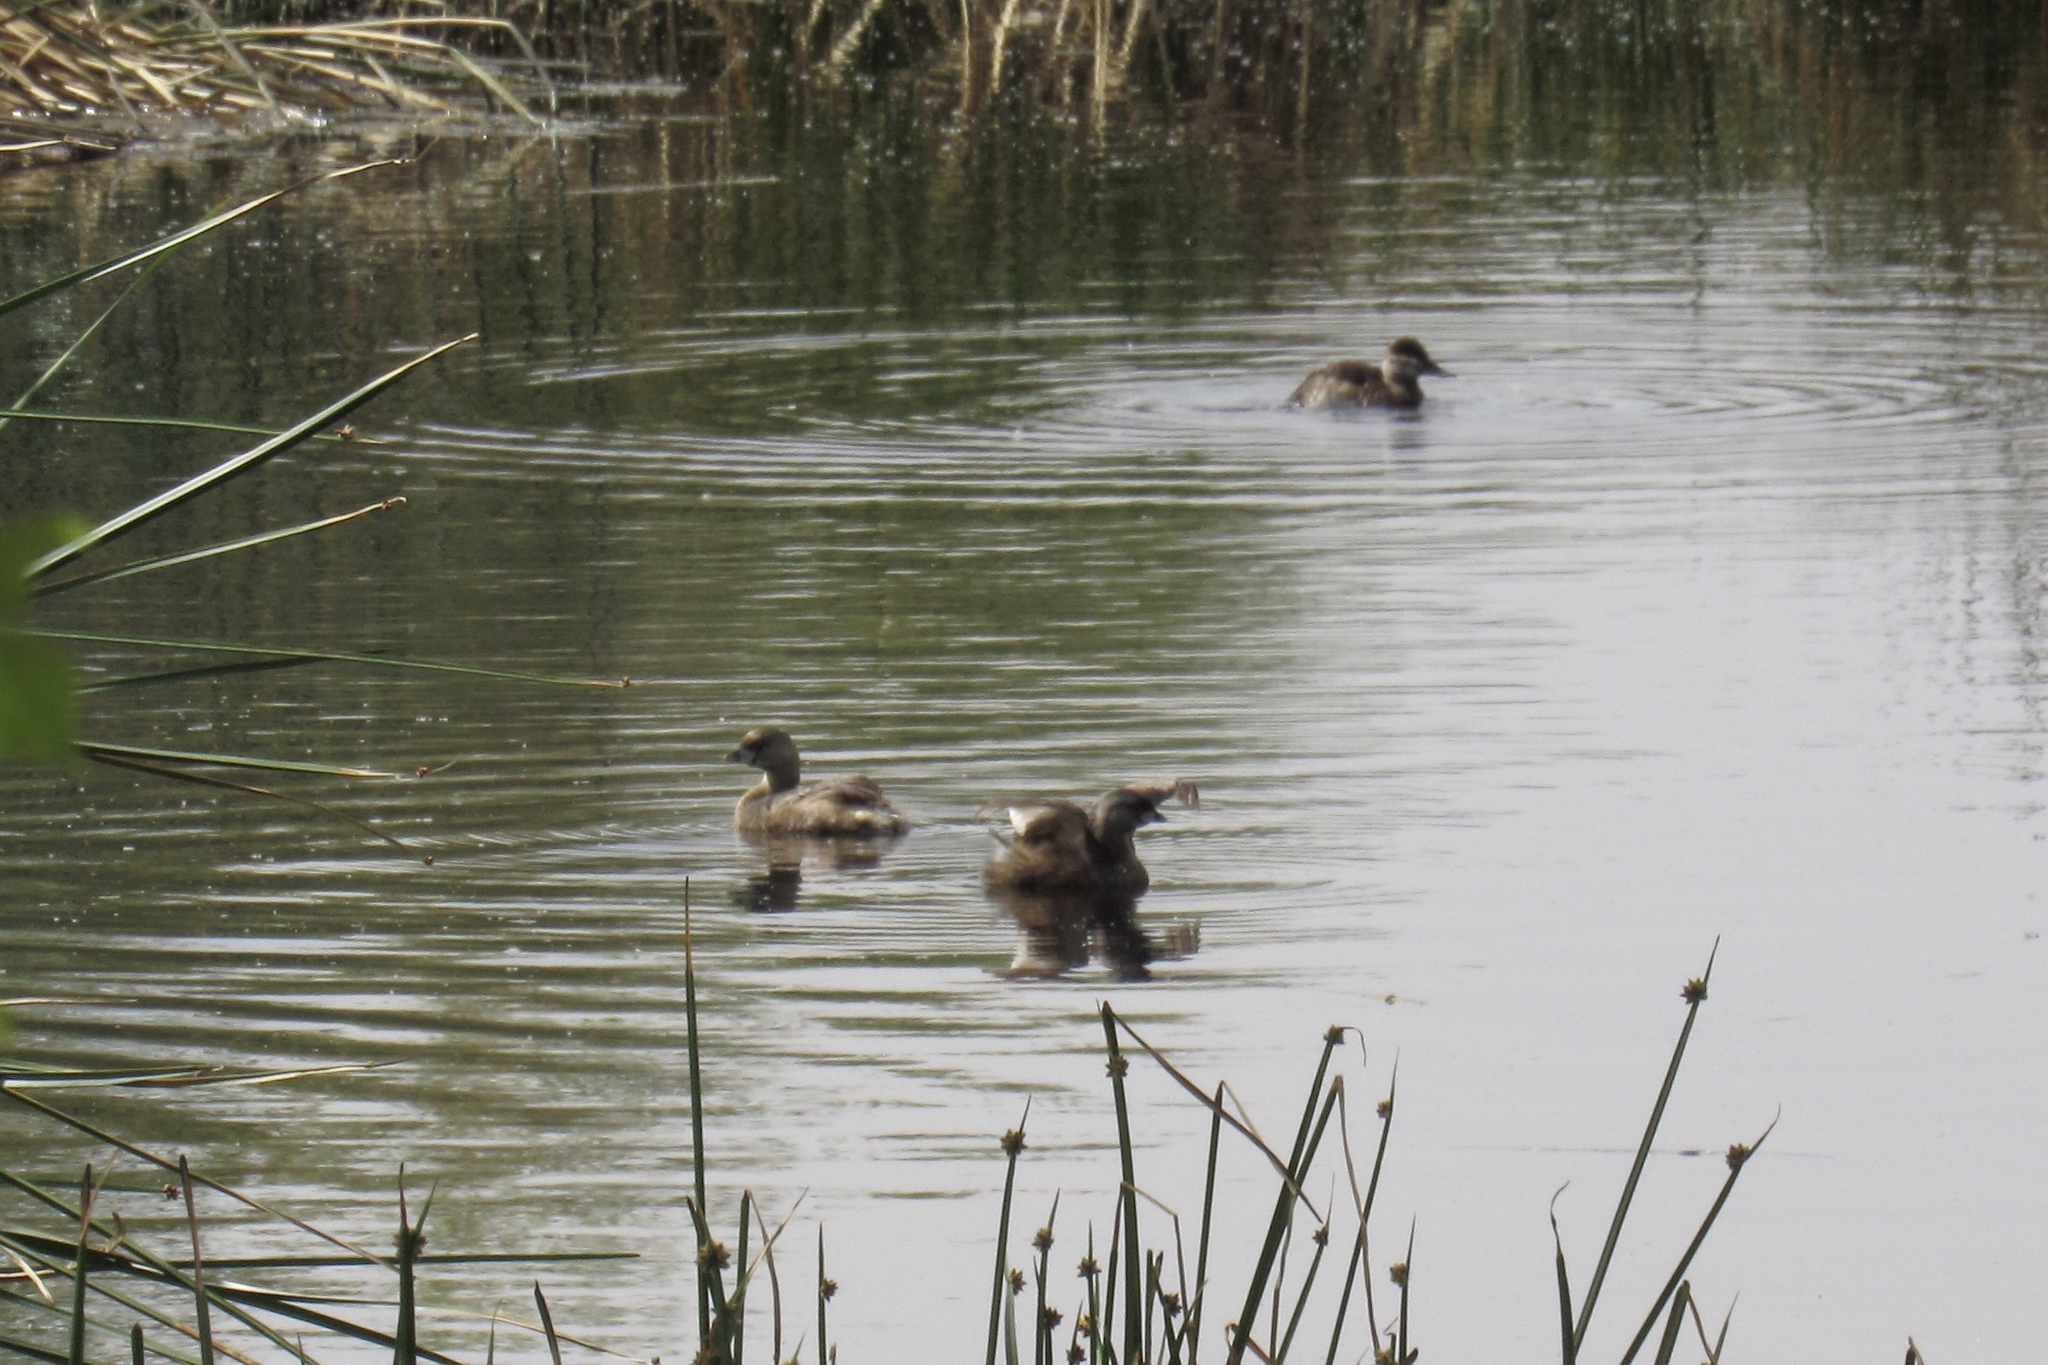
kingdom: Animalia
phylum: Chordata
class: Aves
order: Podicipediformes
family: Podicipedidae
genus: Podilymbus
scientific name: Podilymbus podiceps
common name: Pied-billed grebe
